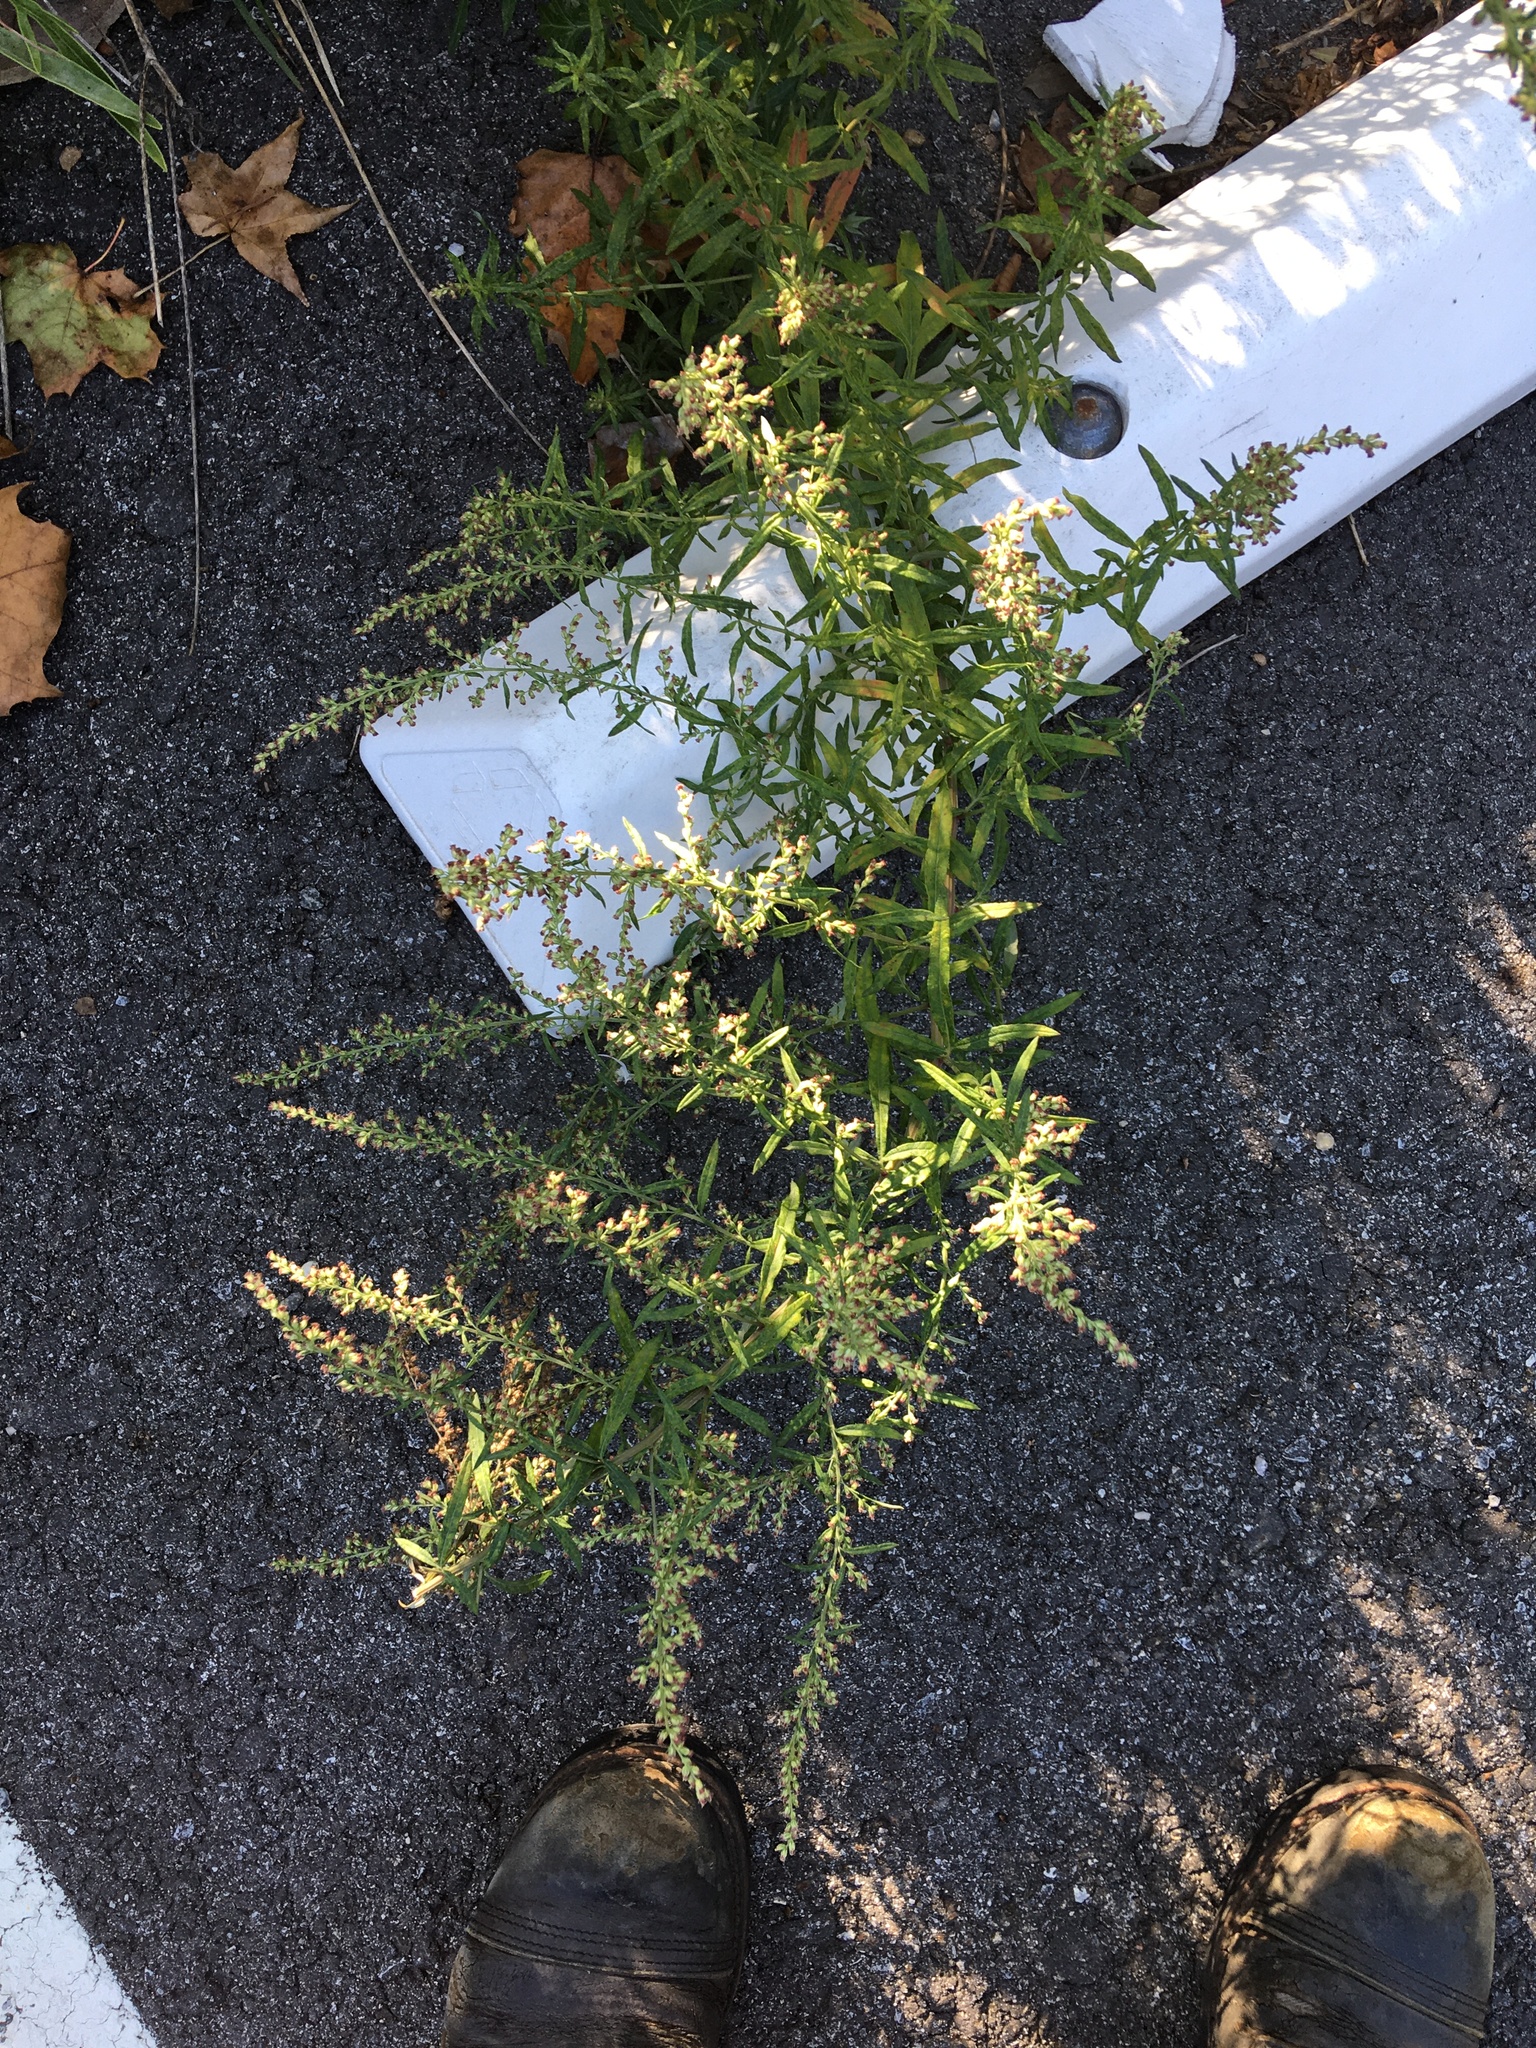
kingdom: Plantae
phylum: Tracheophyta
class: Magnoliopsida
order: Asterales
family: Asteraceae
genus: Artemisia
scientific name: Artemisia vulgaris
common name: Mugwort
